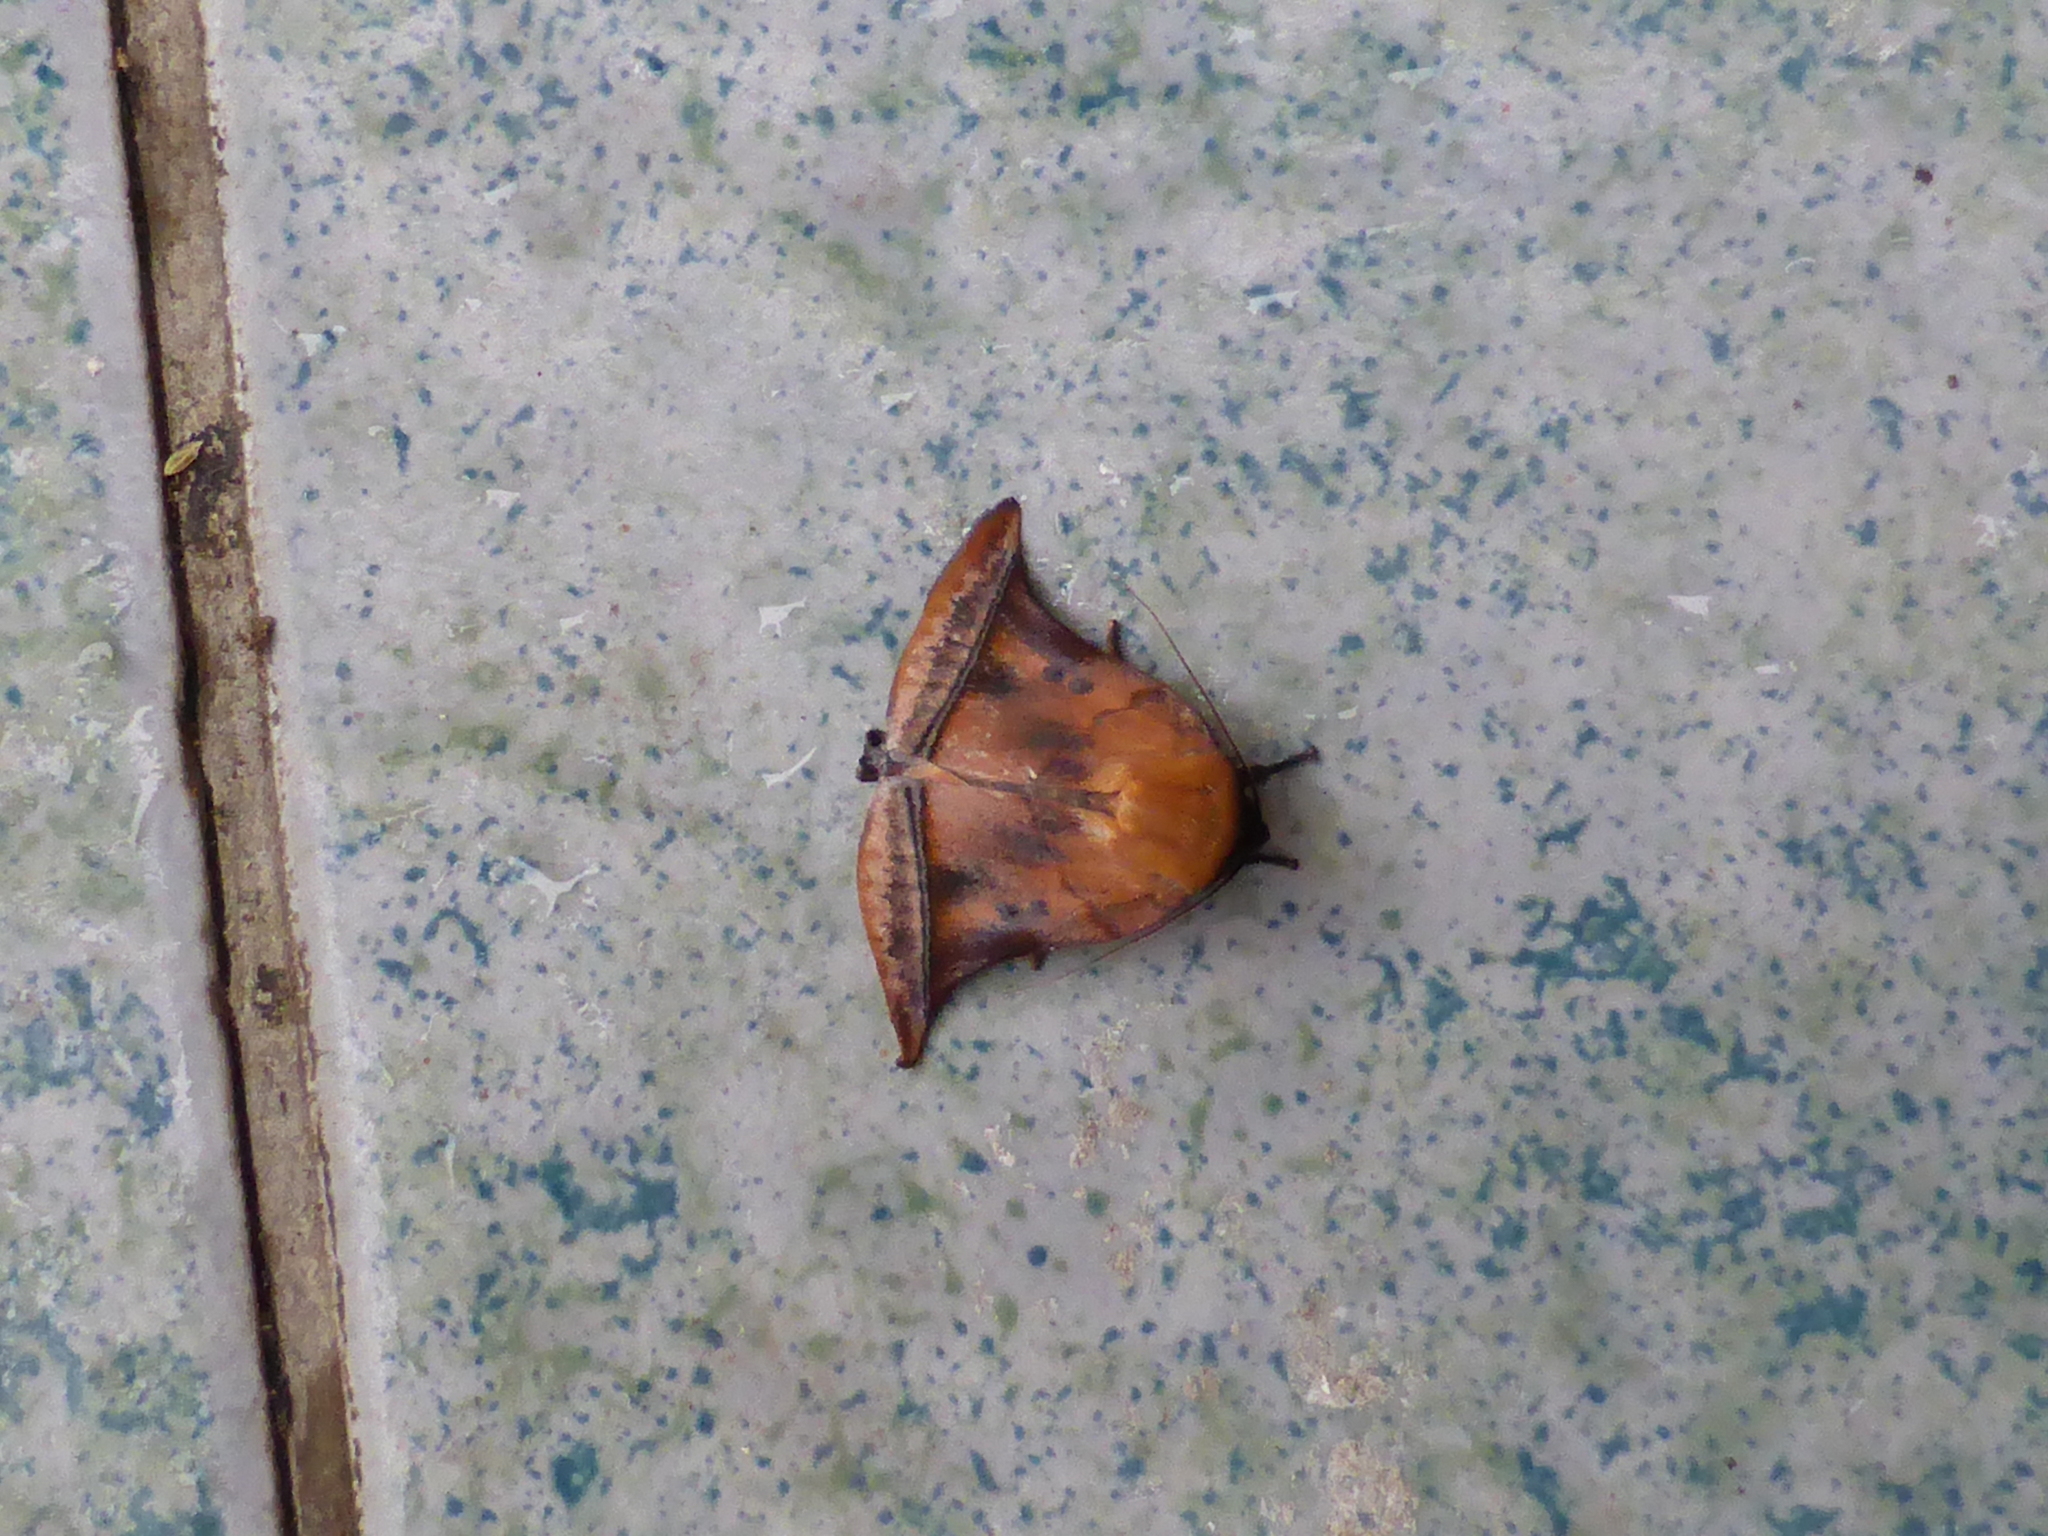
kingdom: Animalia
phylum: Arthropoda
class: Insecta
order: Lepidoptera
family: Nolidae
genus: Diehlea
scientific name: Diehlea ducalis
